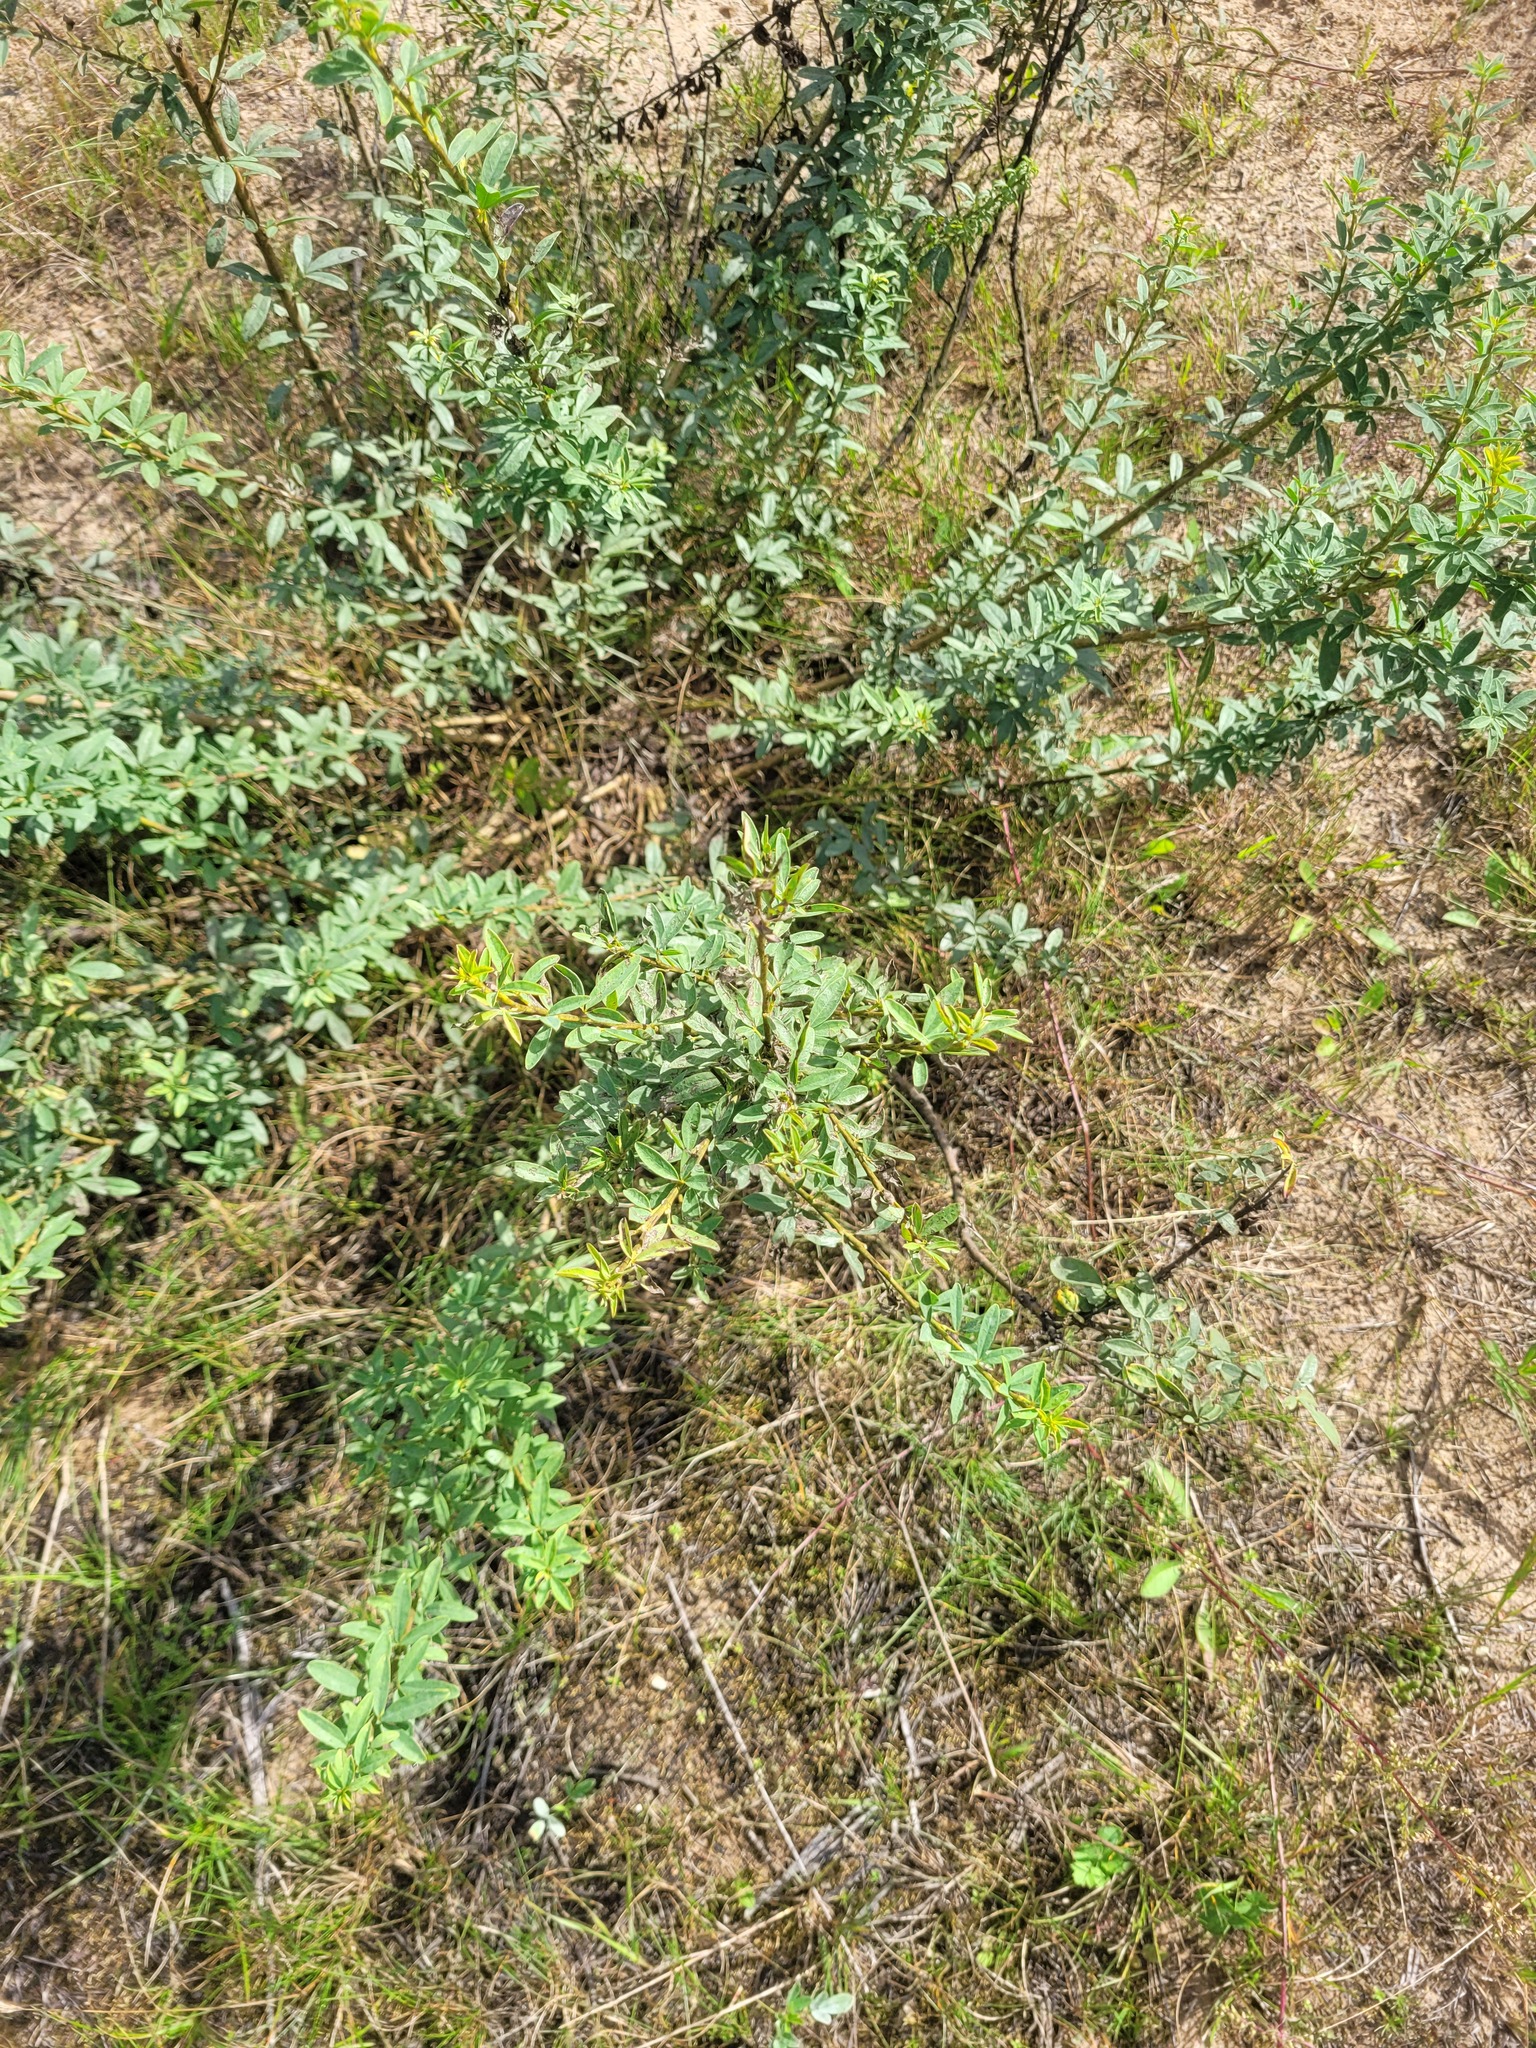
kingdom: Plantae
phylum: Tracheophyta
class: Magnoliopsida
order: Fabales
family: Fabaceae
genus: Chamaecytisus
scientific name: Chamaecytisus ruthenicus
